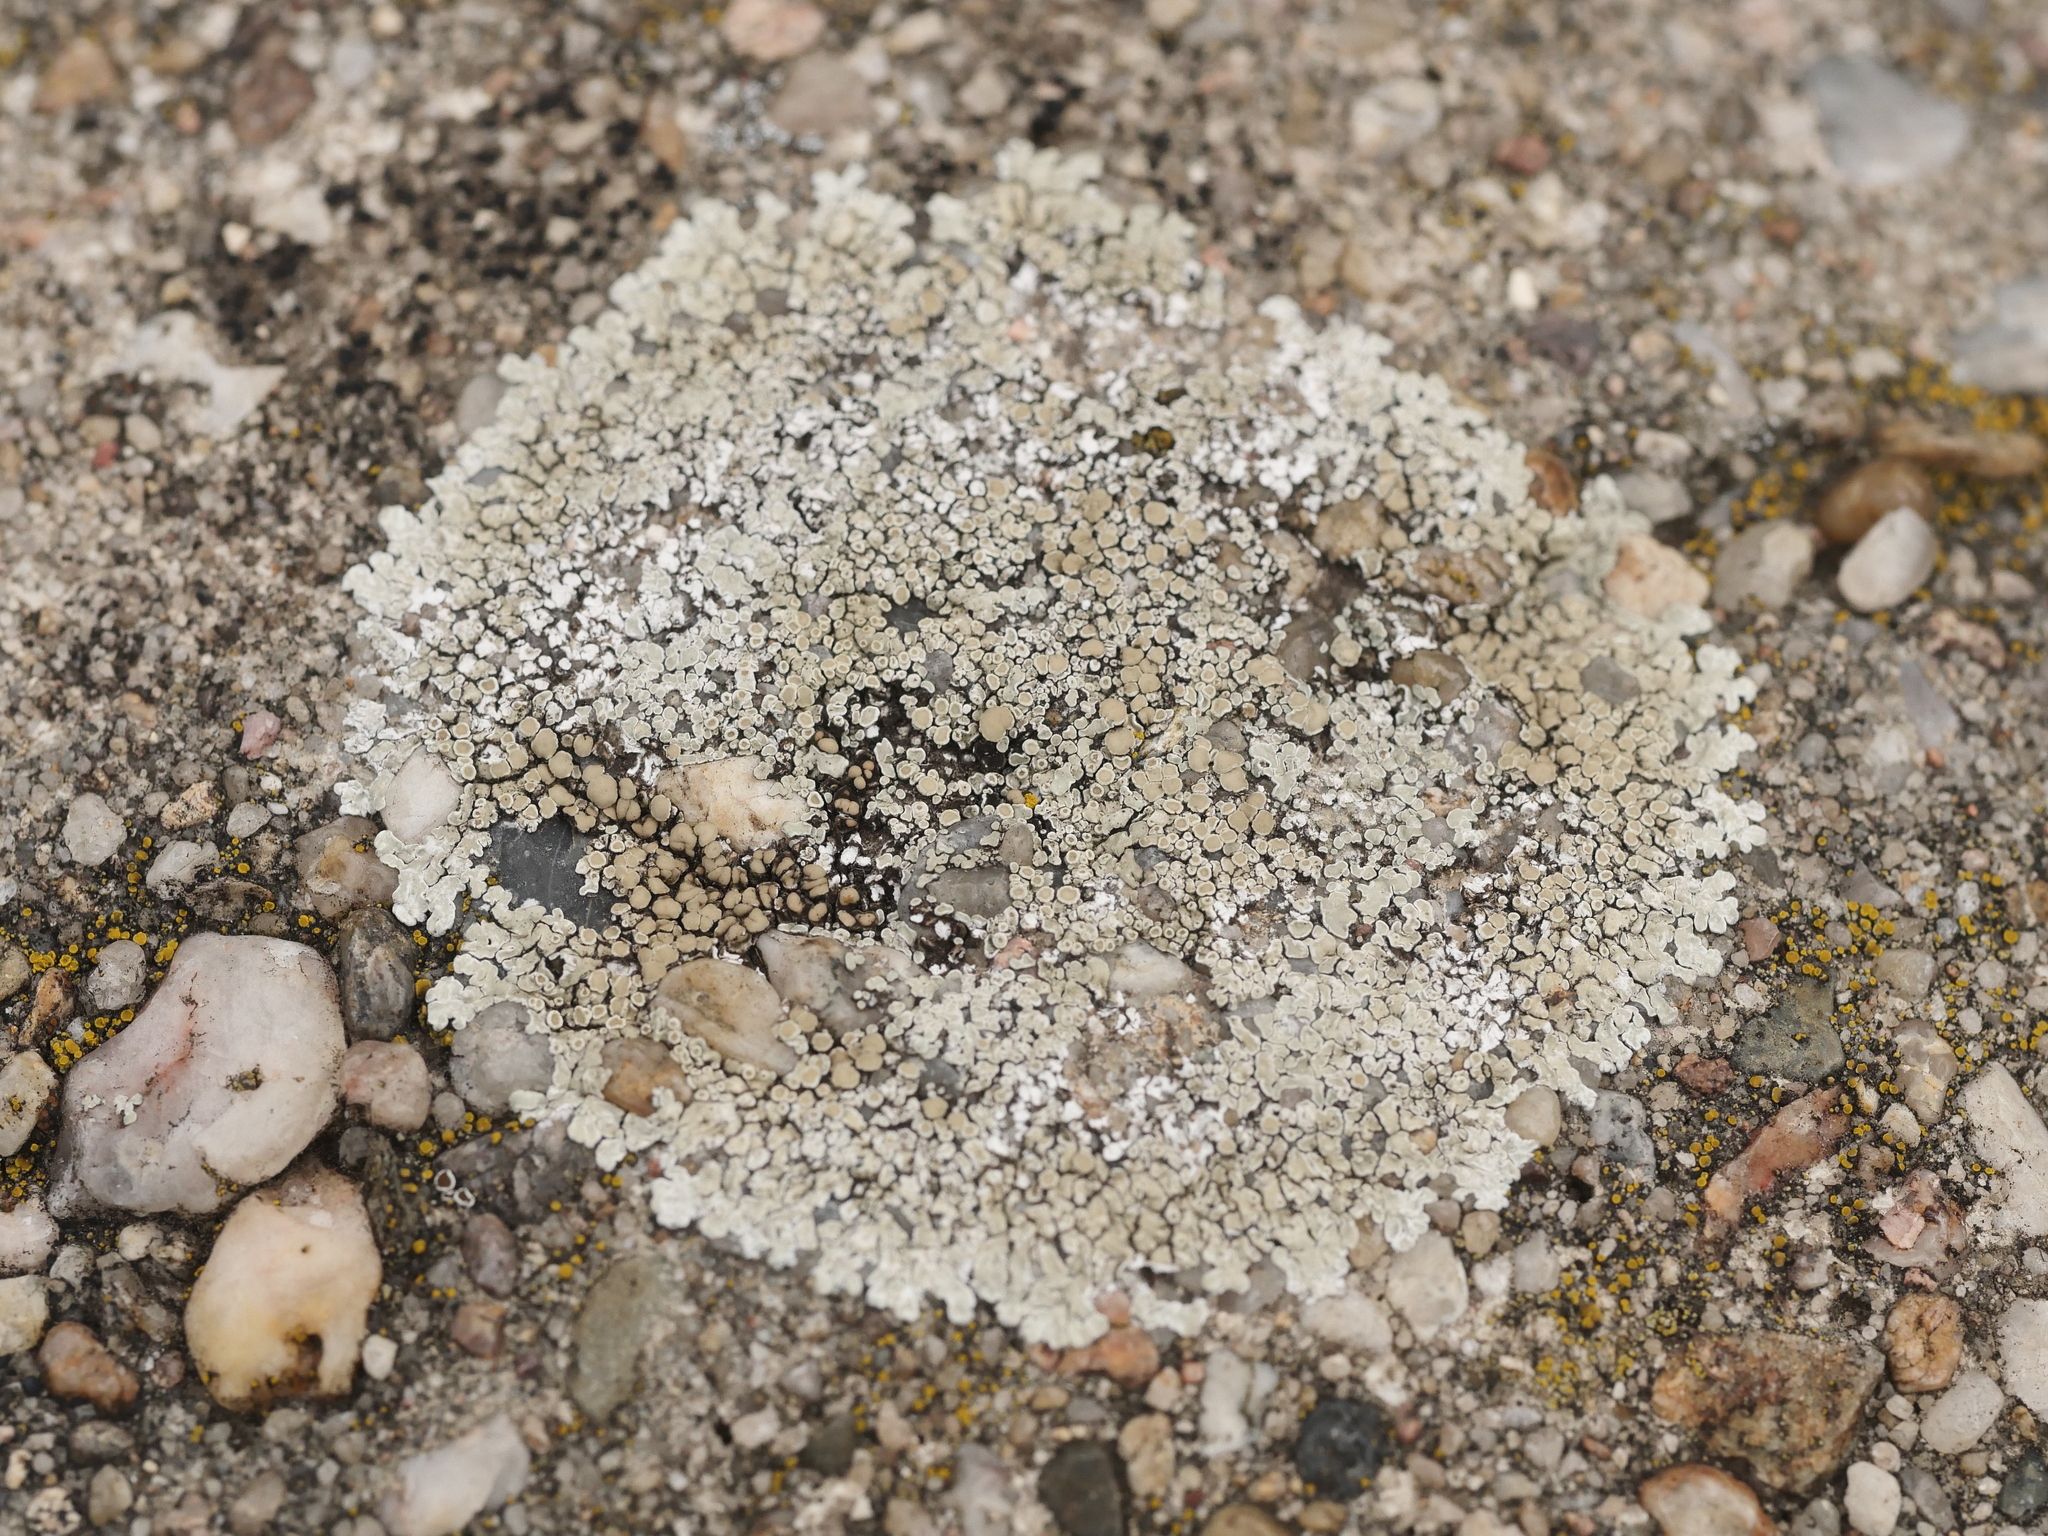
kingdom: Fungi
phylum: Ascomycota
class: Lecanoromycetes
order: Lecanorales
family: Lecanoraceae
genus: Protoparmeliopsis
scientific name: Protoparmeliopsis muralis
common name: Stonewall rim lichen
